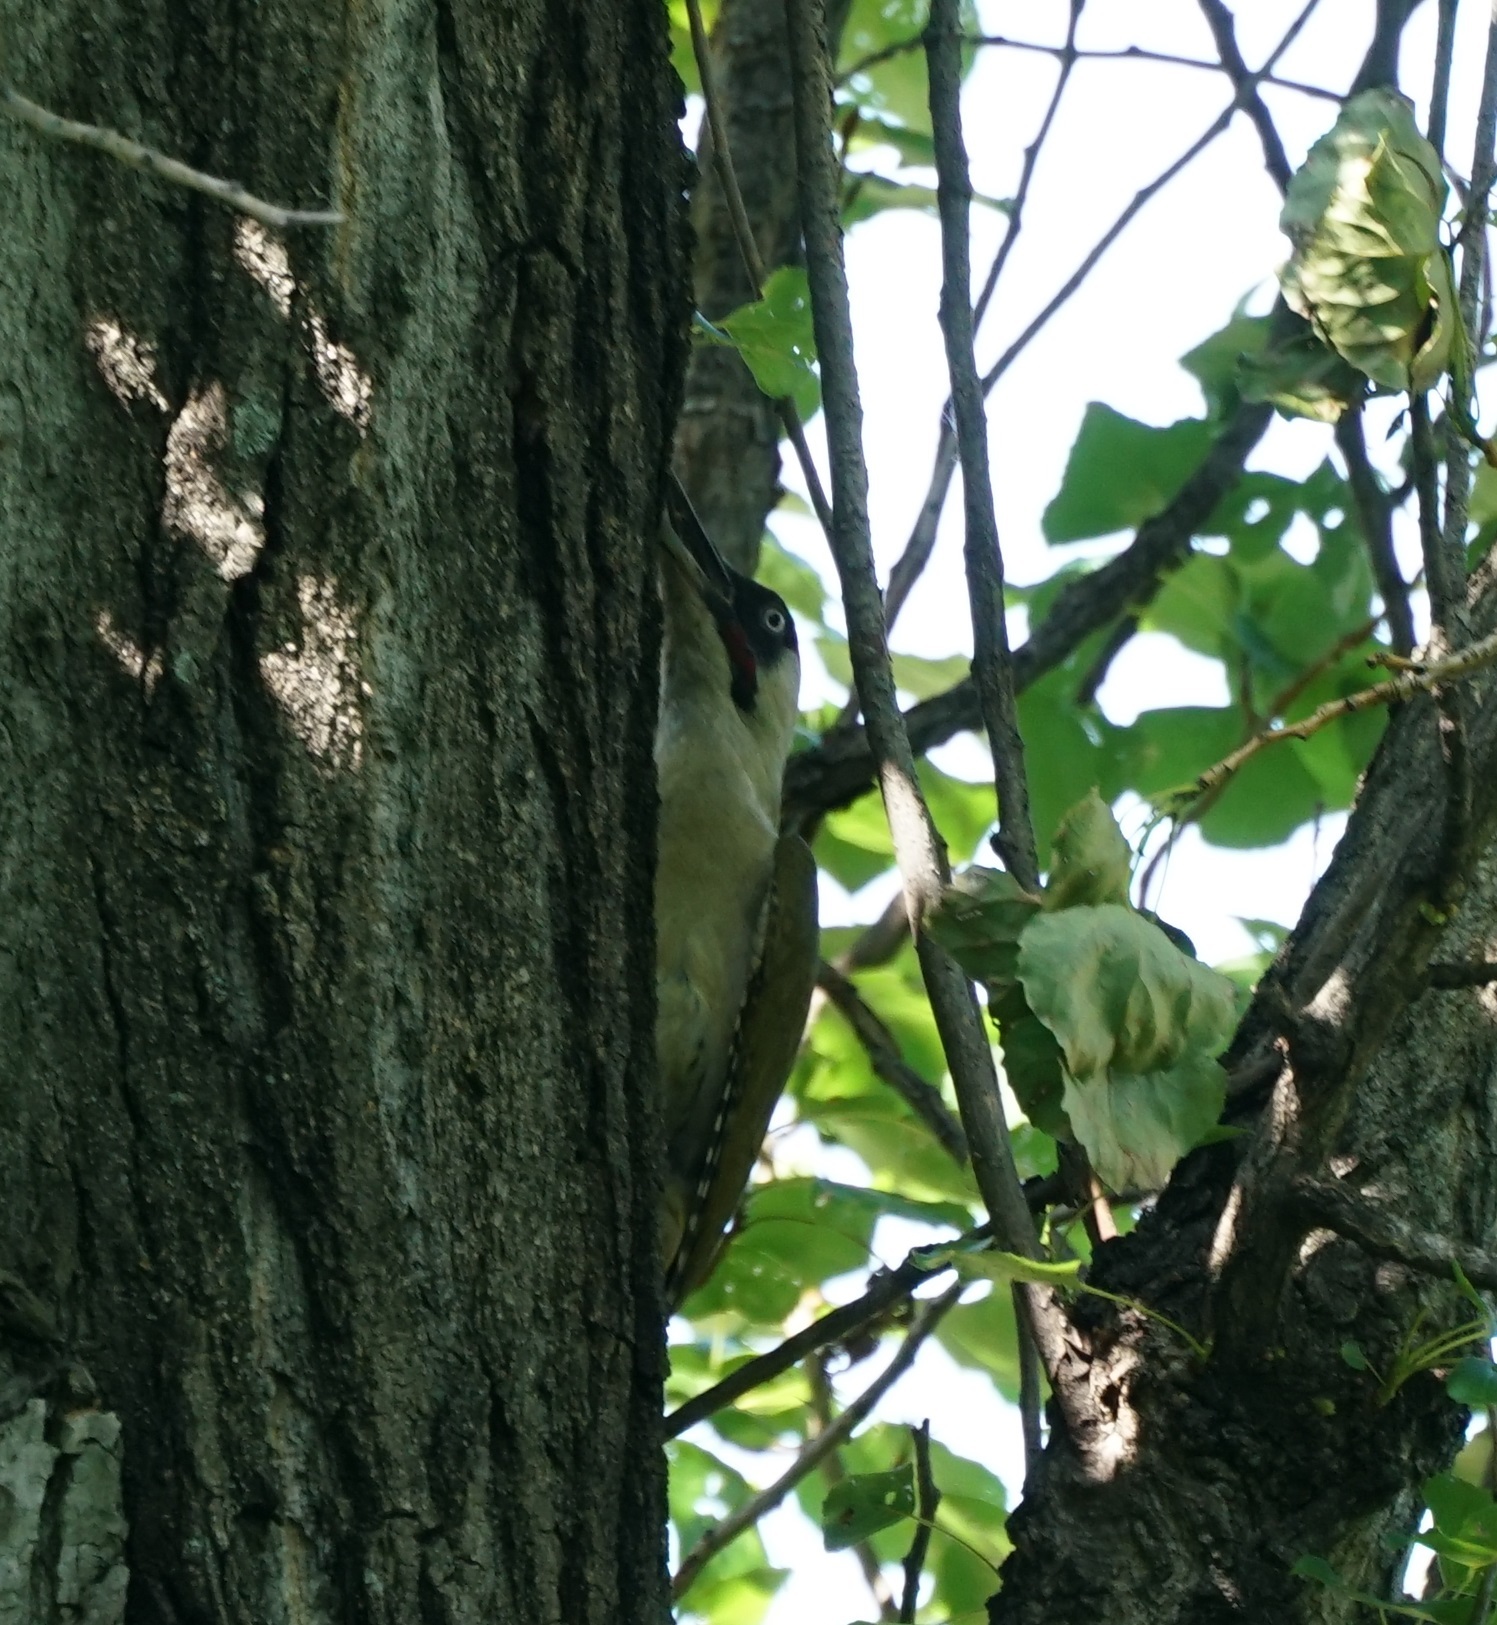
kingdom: Animalia
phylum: Chordata
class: Aves
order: Piciformes
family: Picidae
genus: Picus
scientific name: Picus viridis
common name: European green woodpecker
